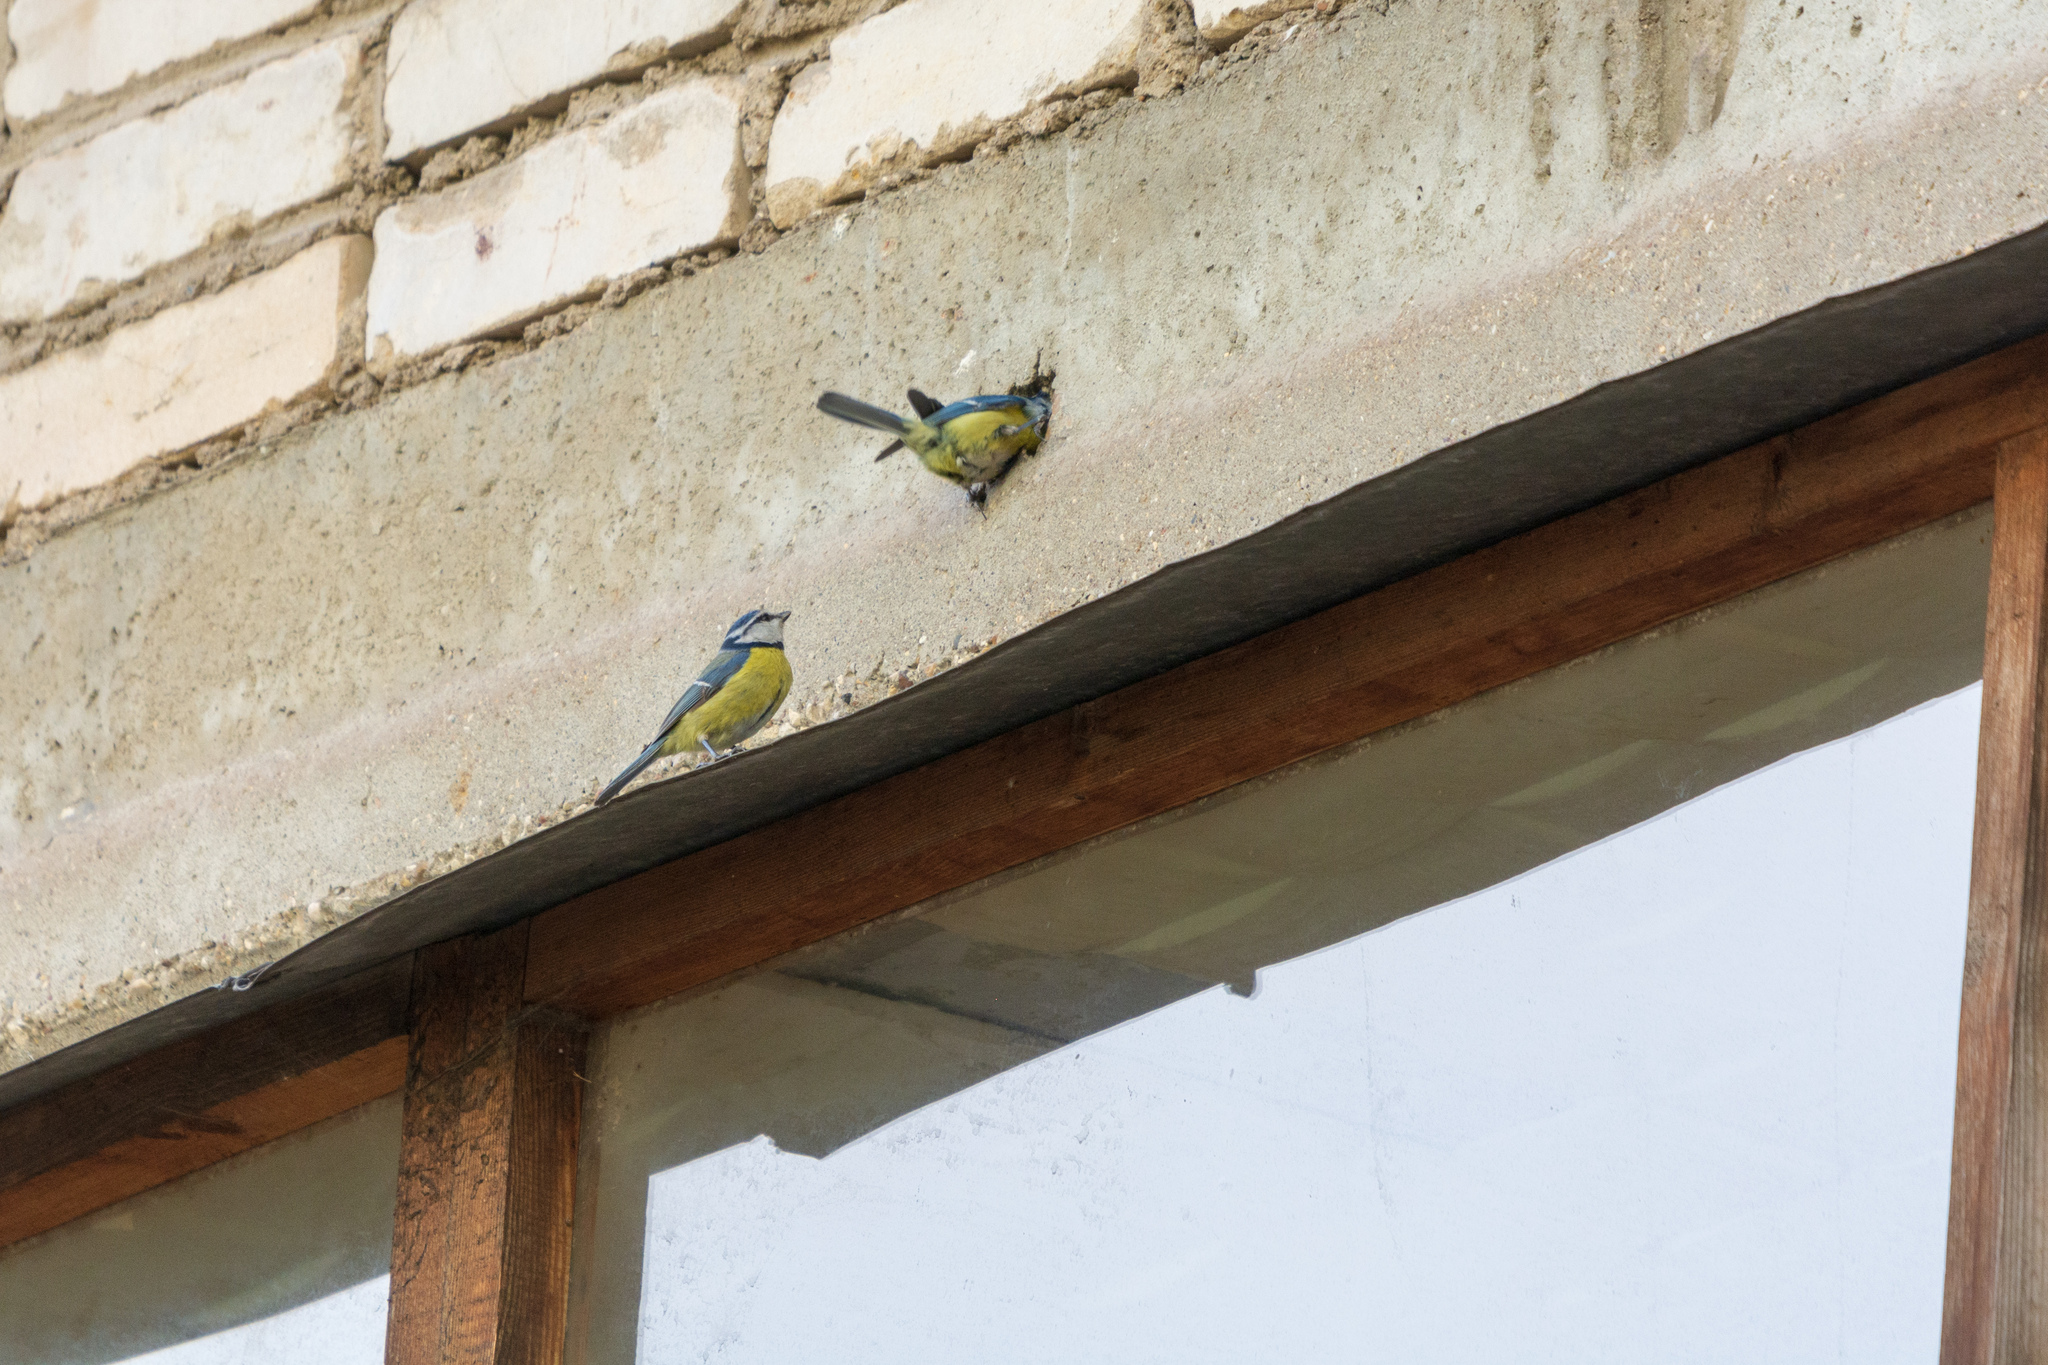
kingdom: Animalia
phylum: Chordata
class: Aves
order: Passeriformes
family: Paridae
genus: Cyanistes
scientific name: Cyanistes caeruleus
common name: Eurasian blue tit
